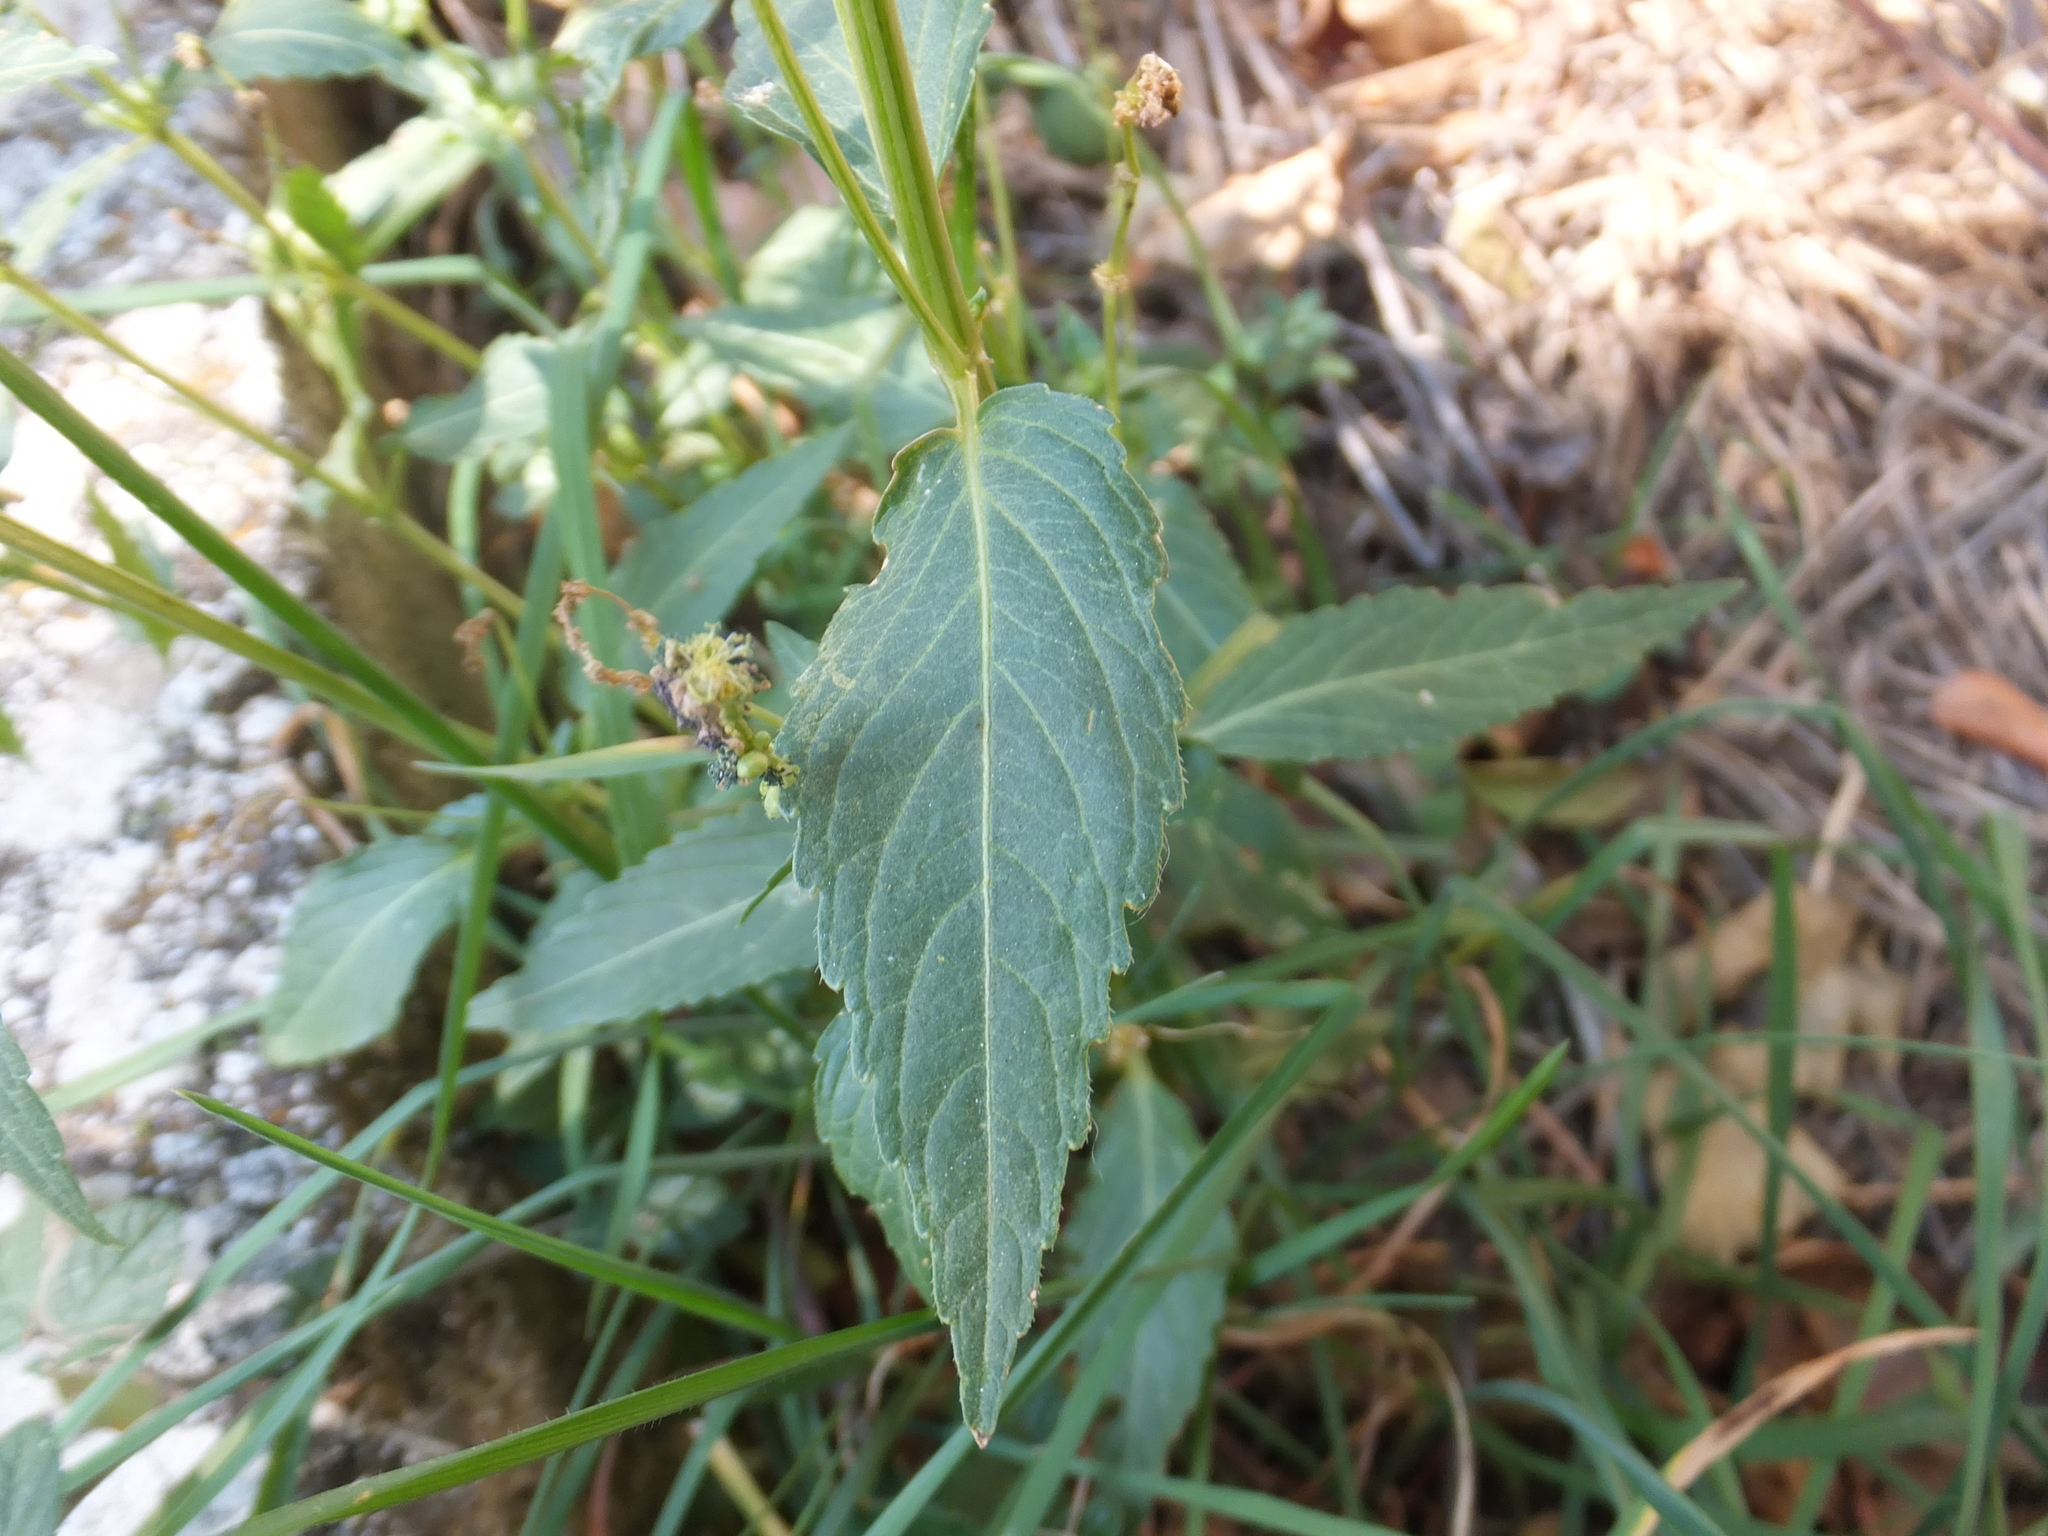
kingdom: Plantae
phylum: Tracheophyta
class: Magnoliopsida
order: Malpighiales
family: Euphorbiaceae
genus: Mercurialis
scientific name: Mercurialis annua
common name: Annual mercury
